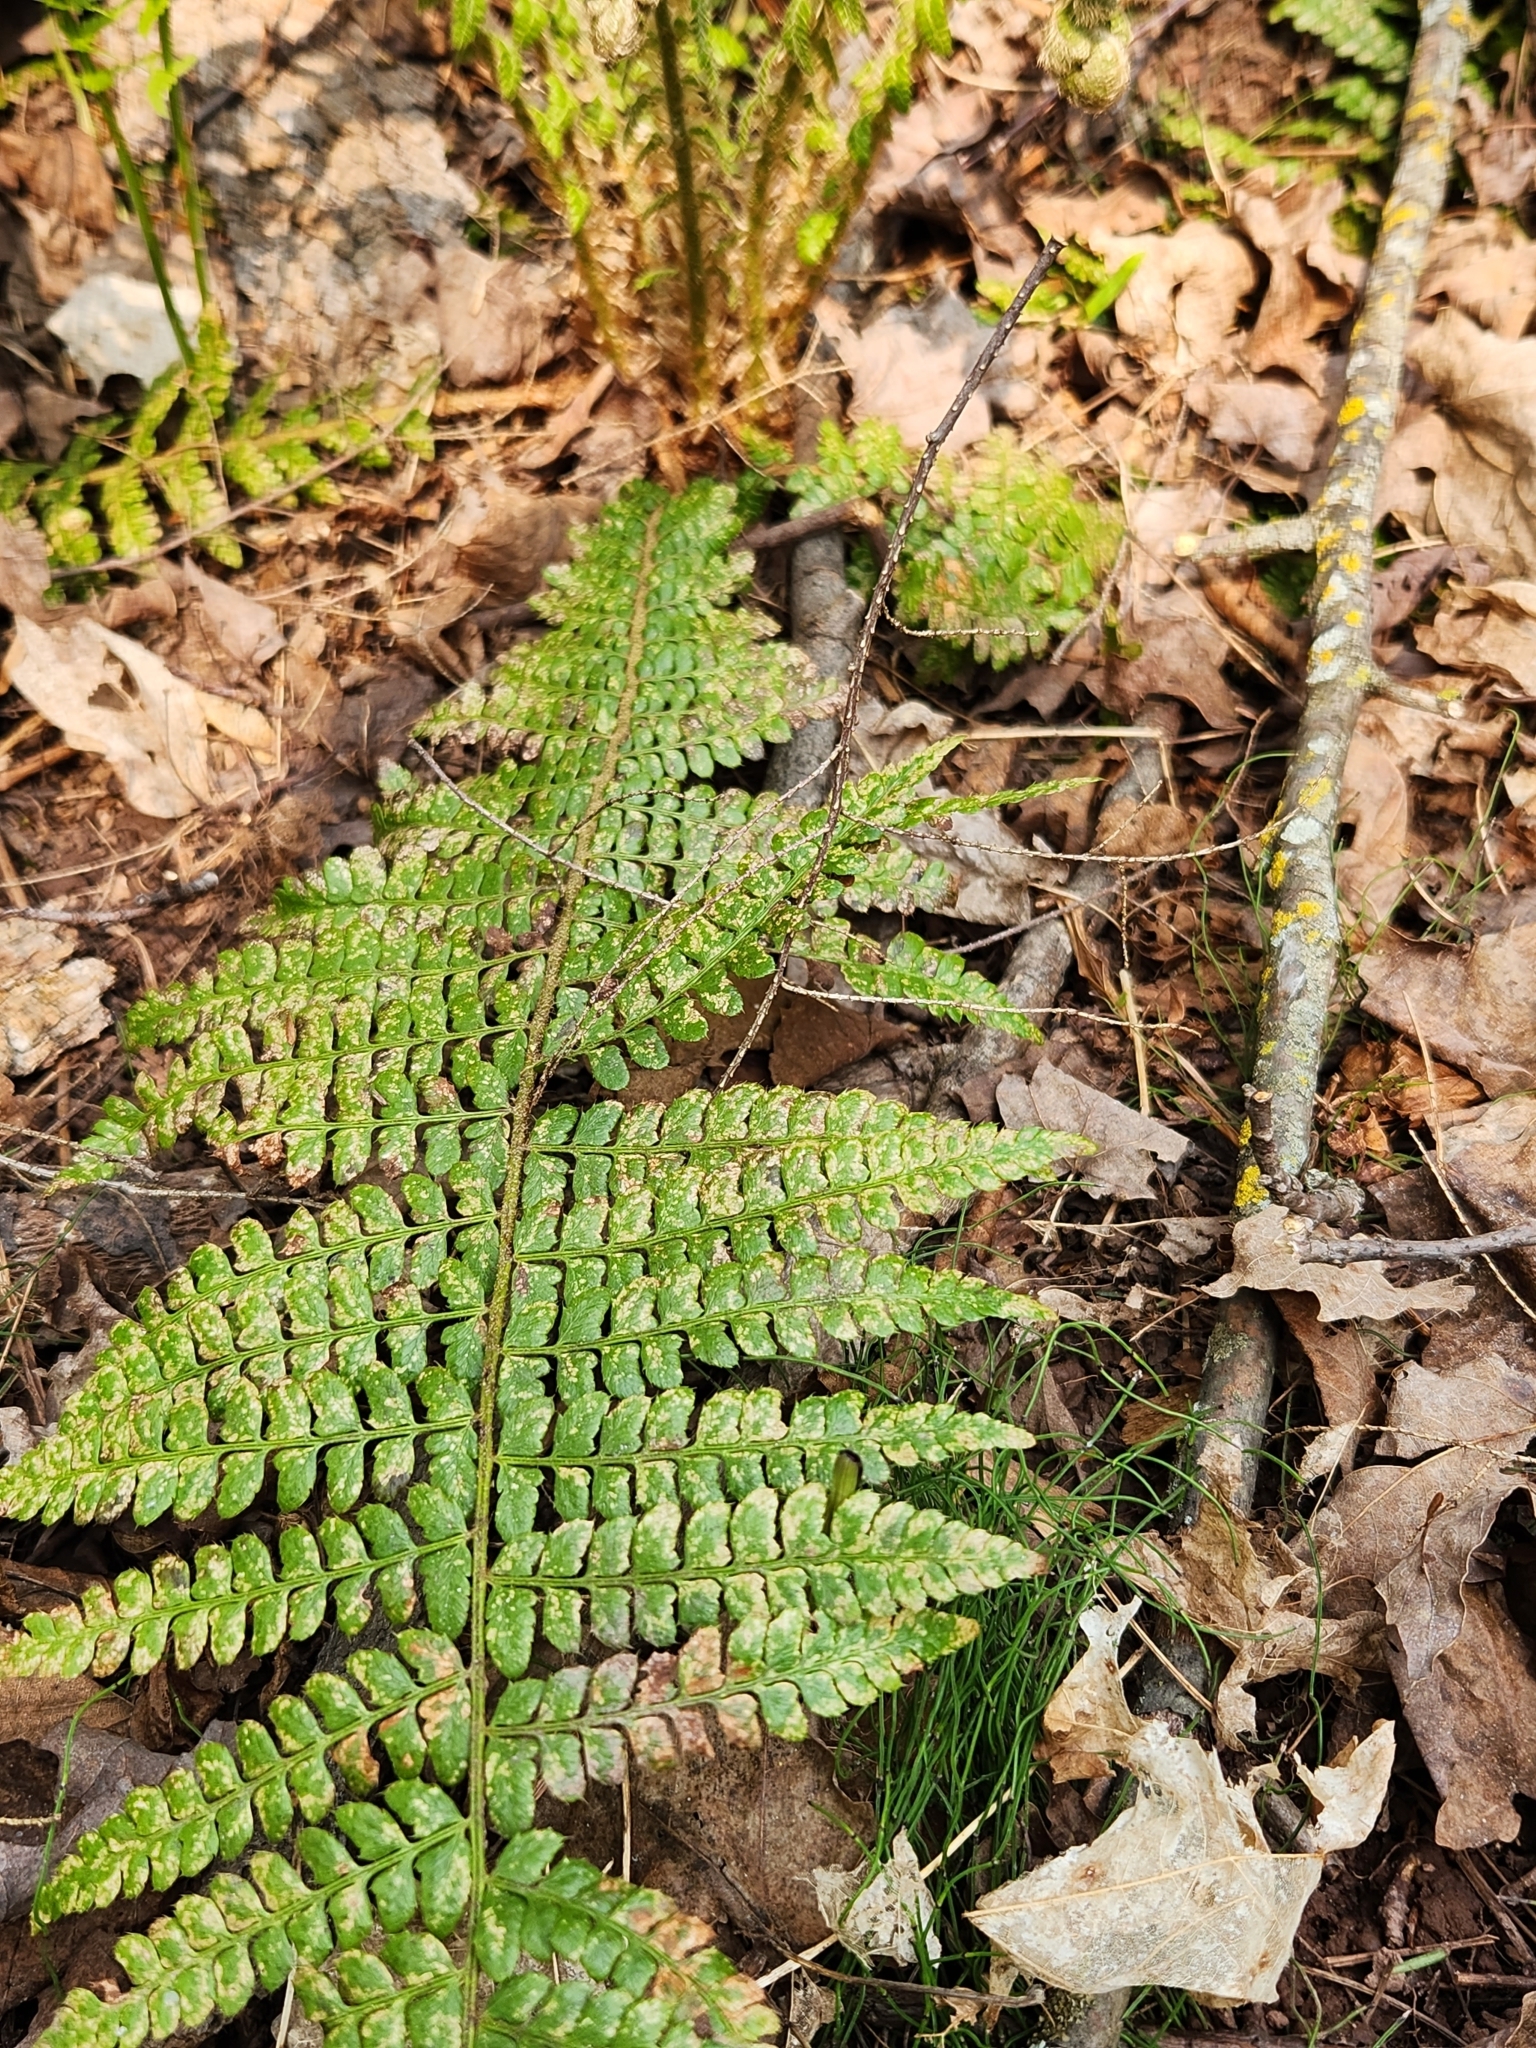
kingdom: Plantae
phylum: Tracheophyta
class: Polypodiopsida
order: Polypodiales
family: Dryopteridaceae
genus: Polystichum
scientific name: Polystichum braunii
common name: Braun's holly fern
